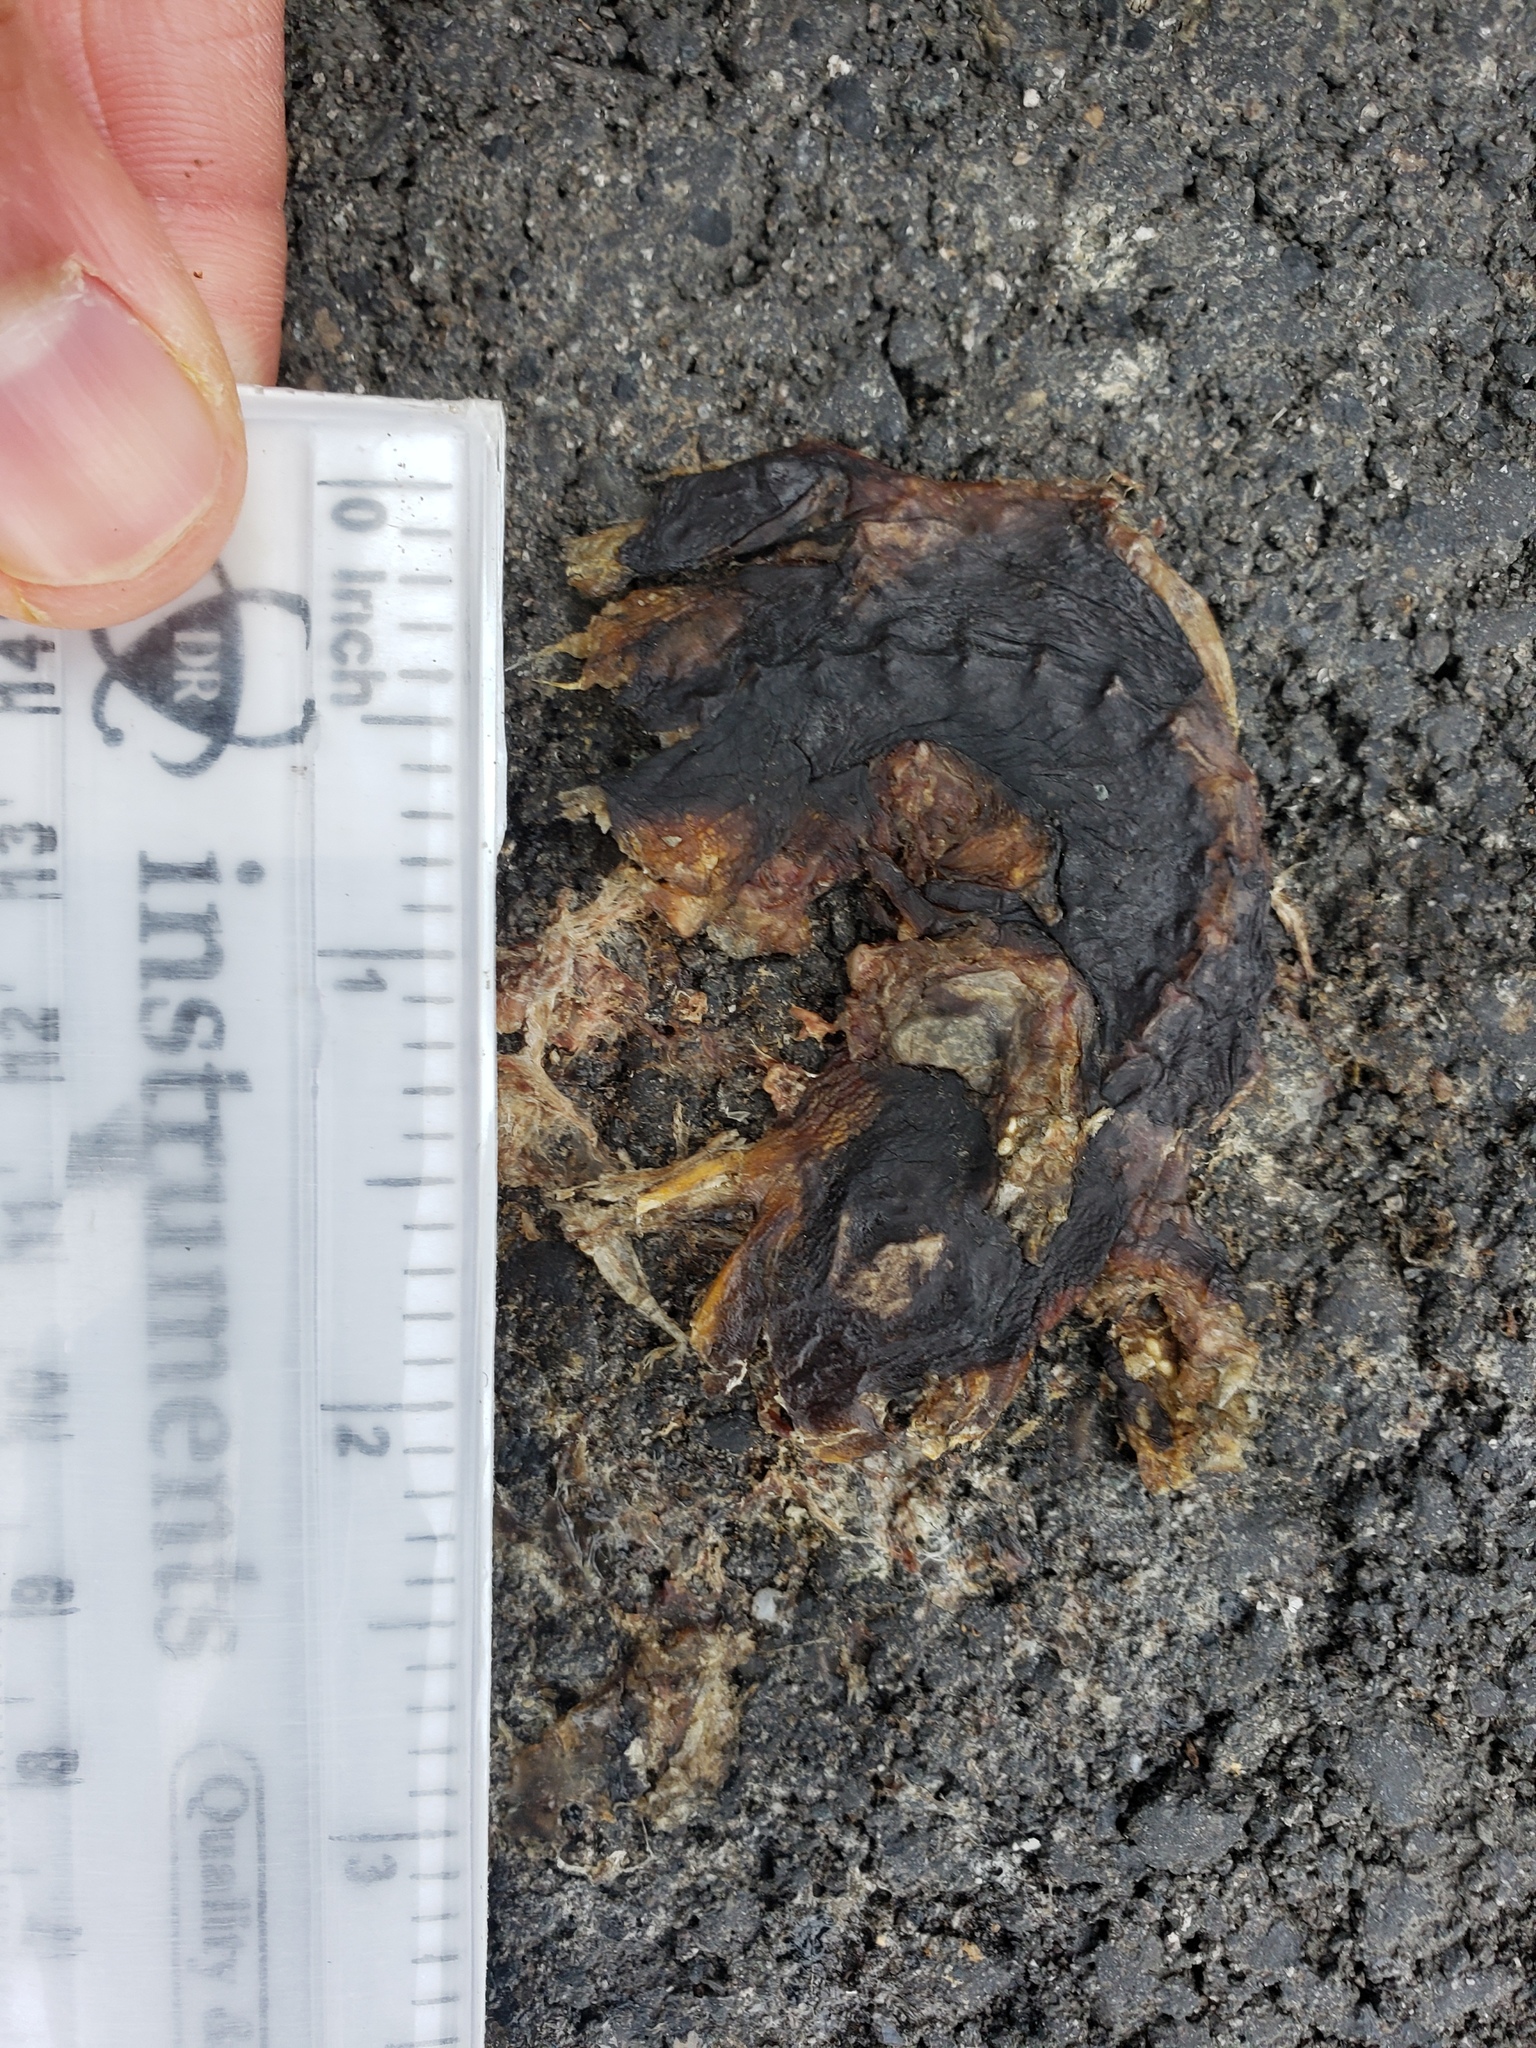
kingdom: Animalia
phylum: Chordata
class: Amphibia
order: Caudata
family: Salamandridae
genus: Taricha
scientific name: Taricha
